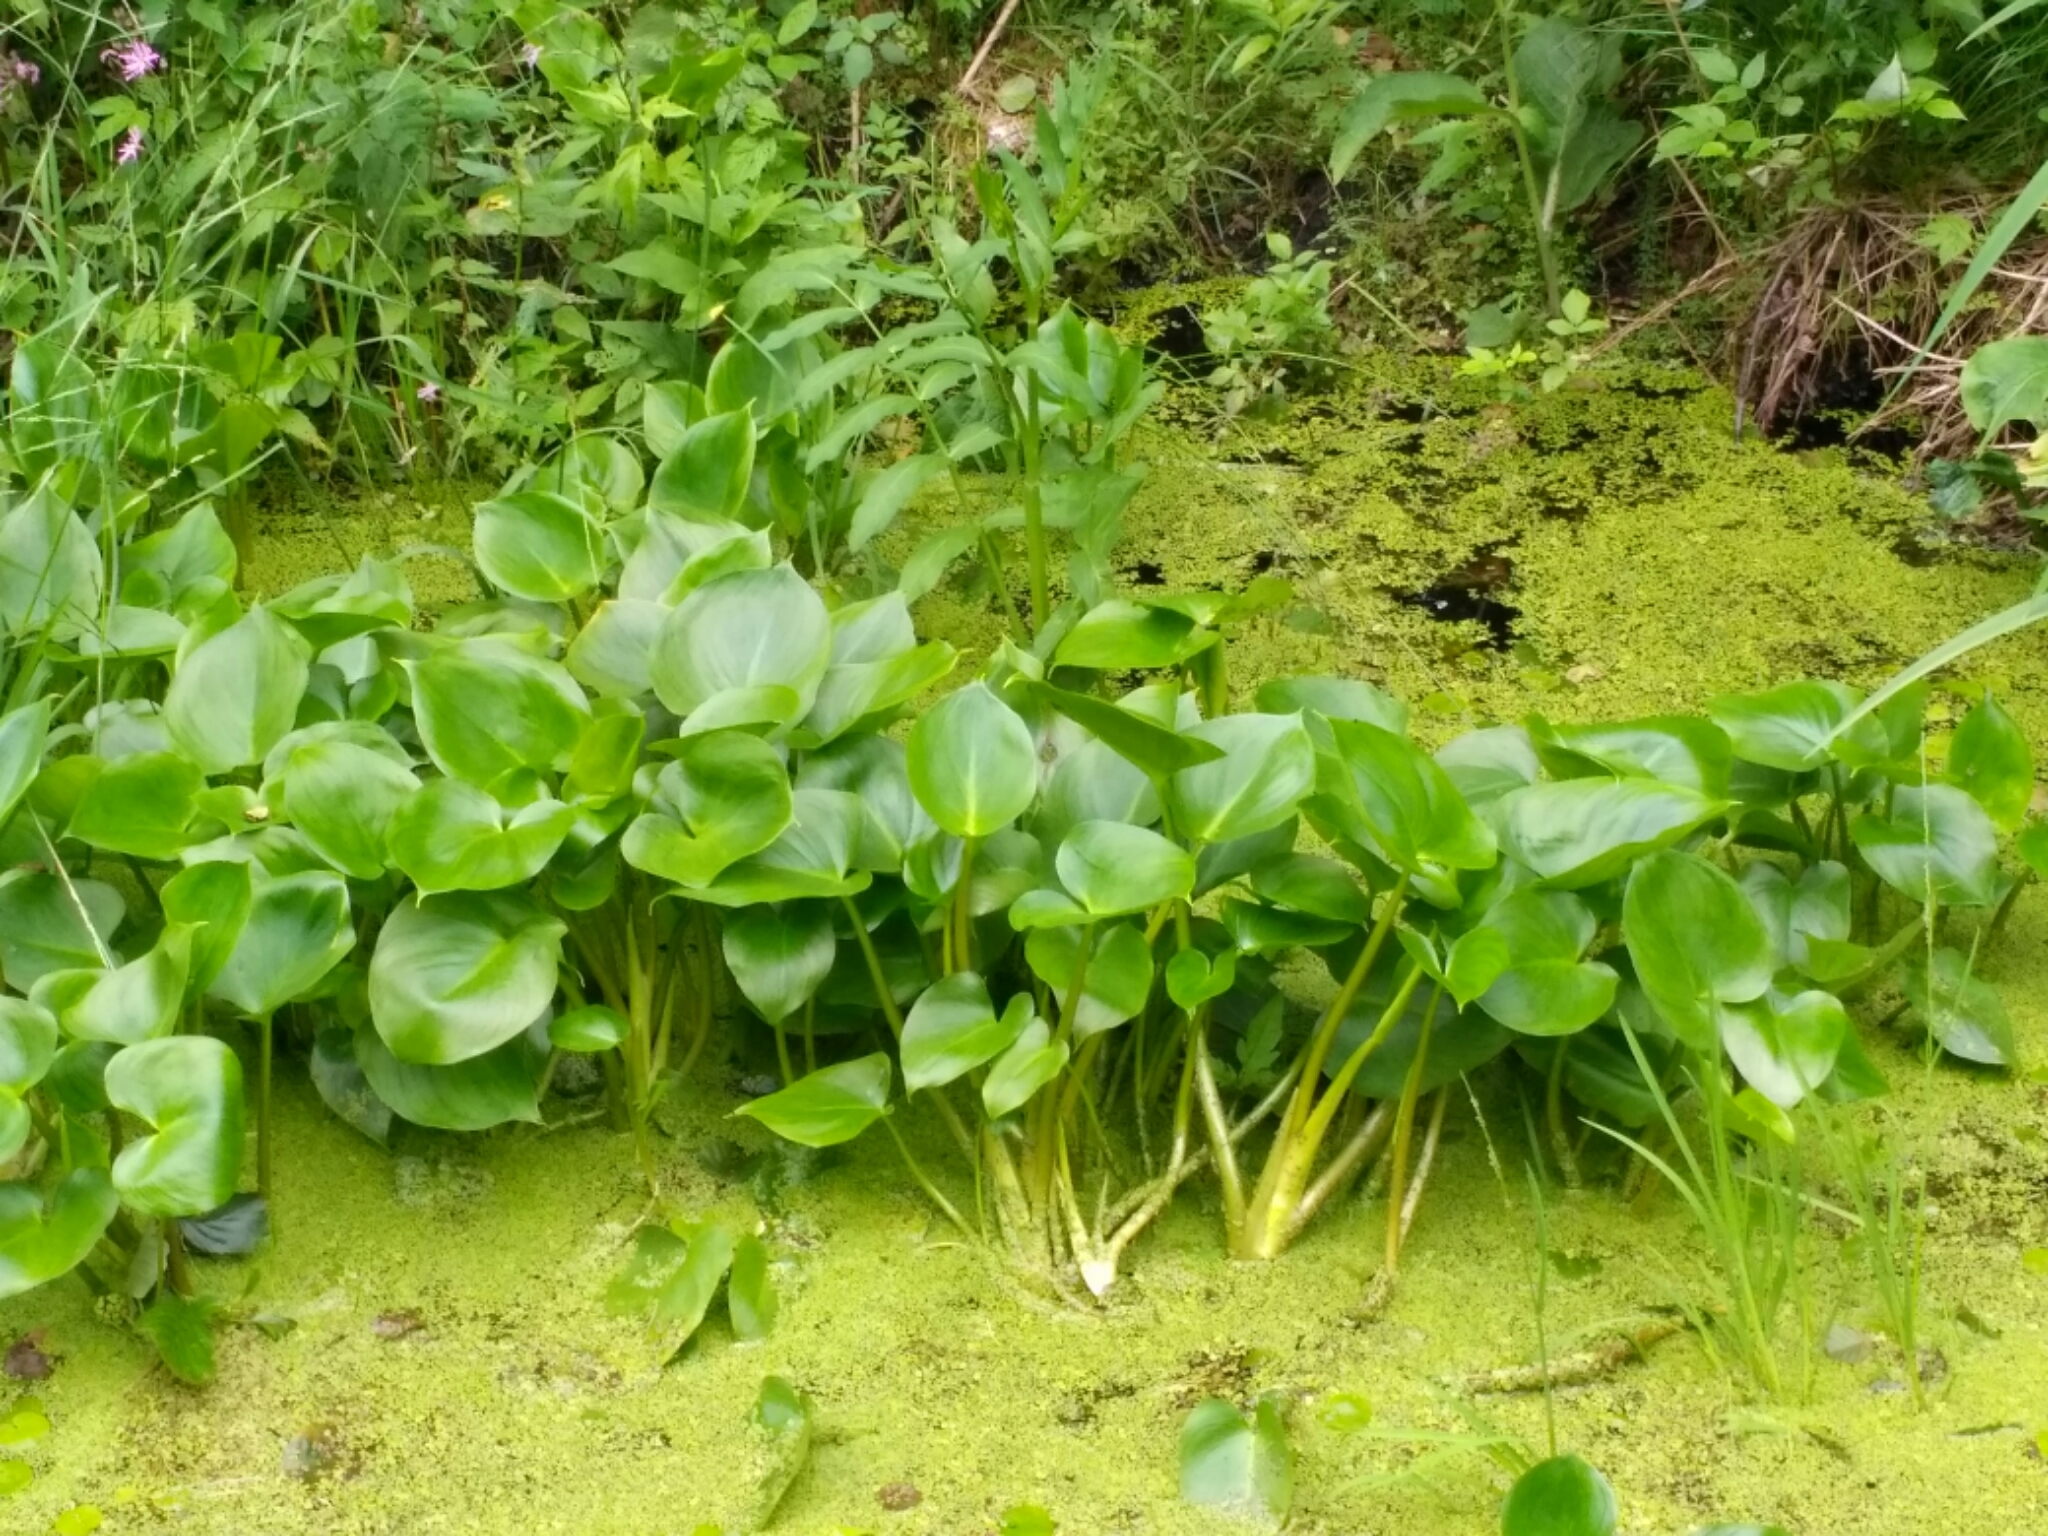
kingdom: Plantae
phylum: Tracheophyta
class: Liliopsida
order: Alismatales
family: Araceae
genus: Calla
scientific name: Calla palustris
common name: Bog arum
